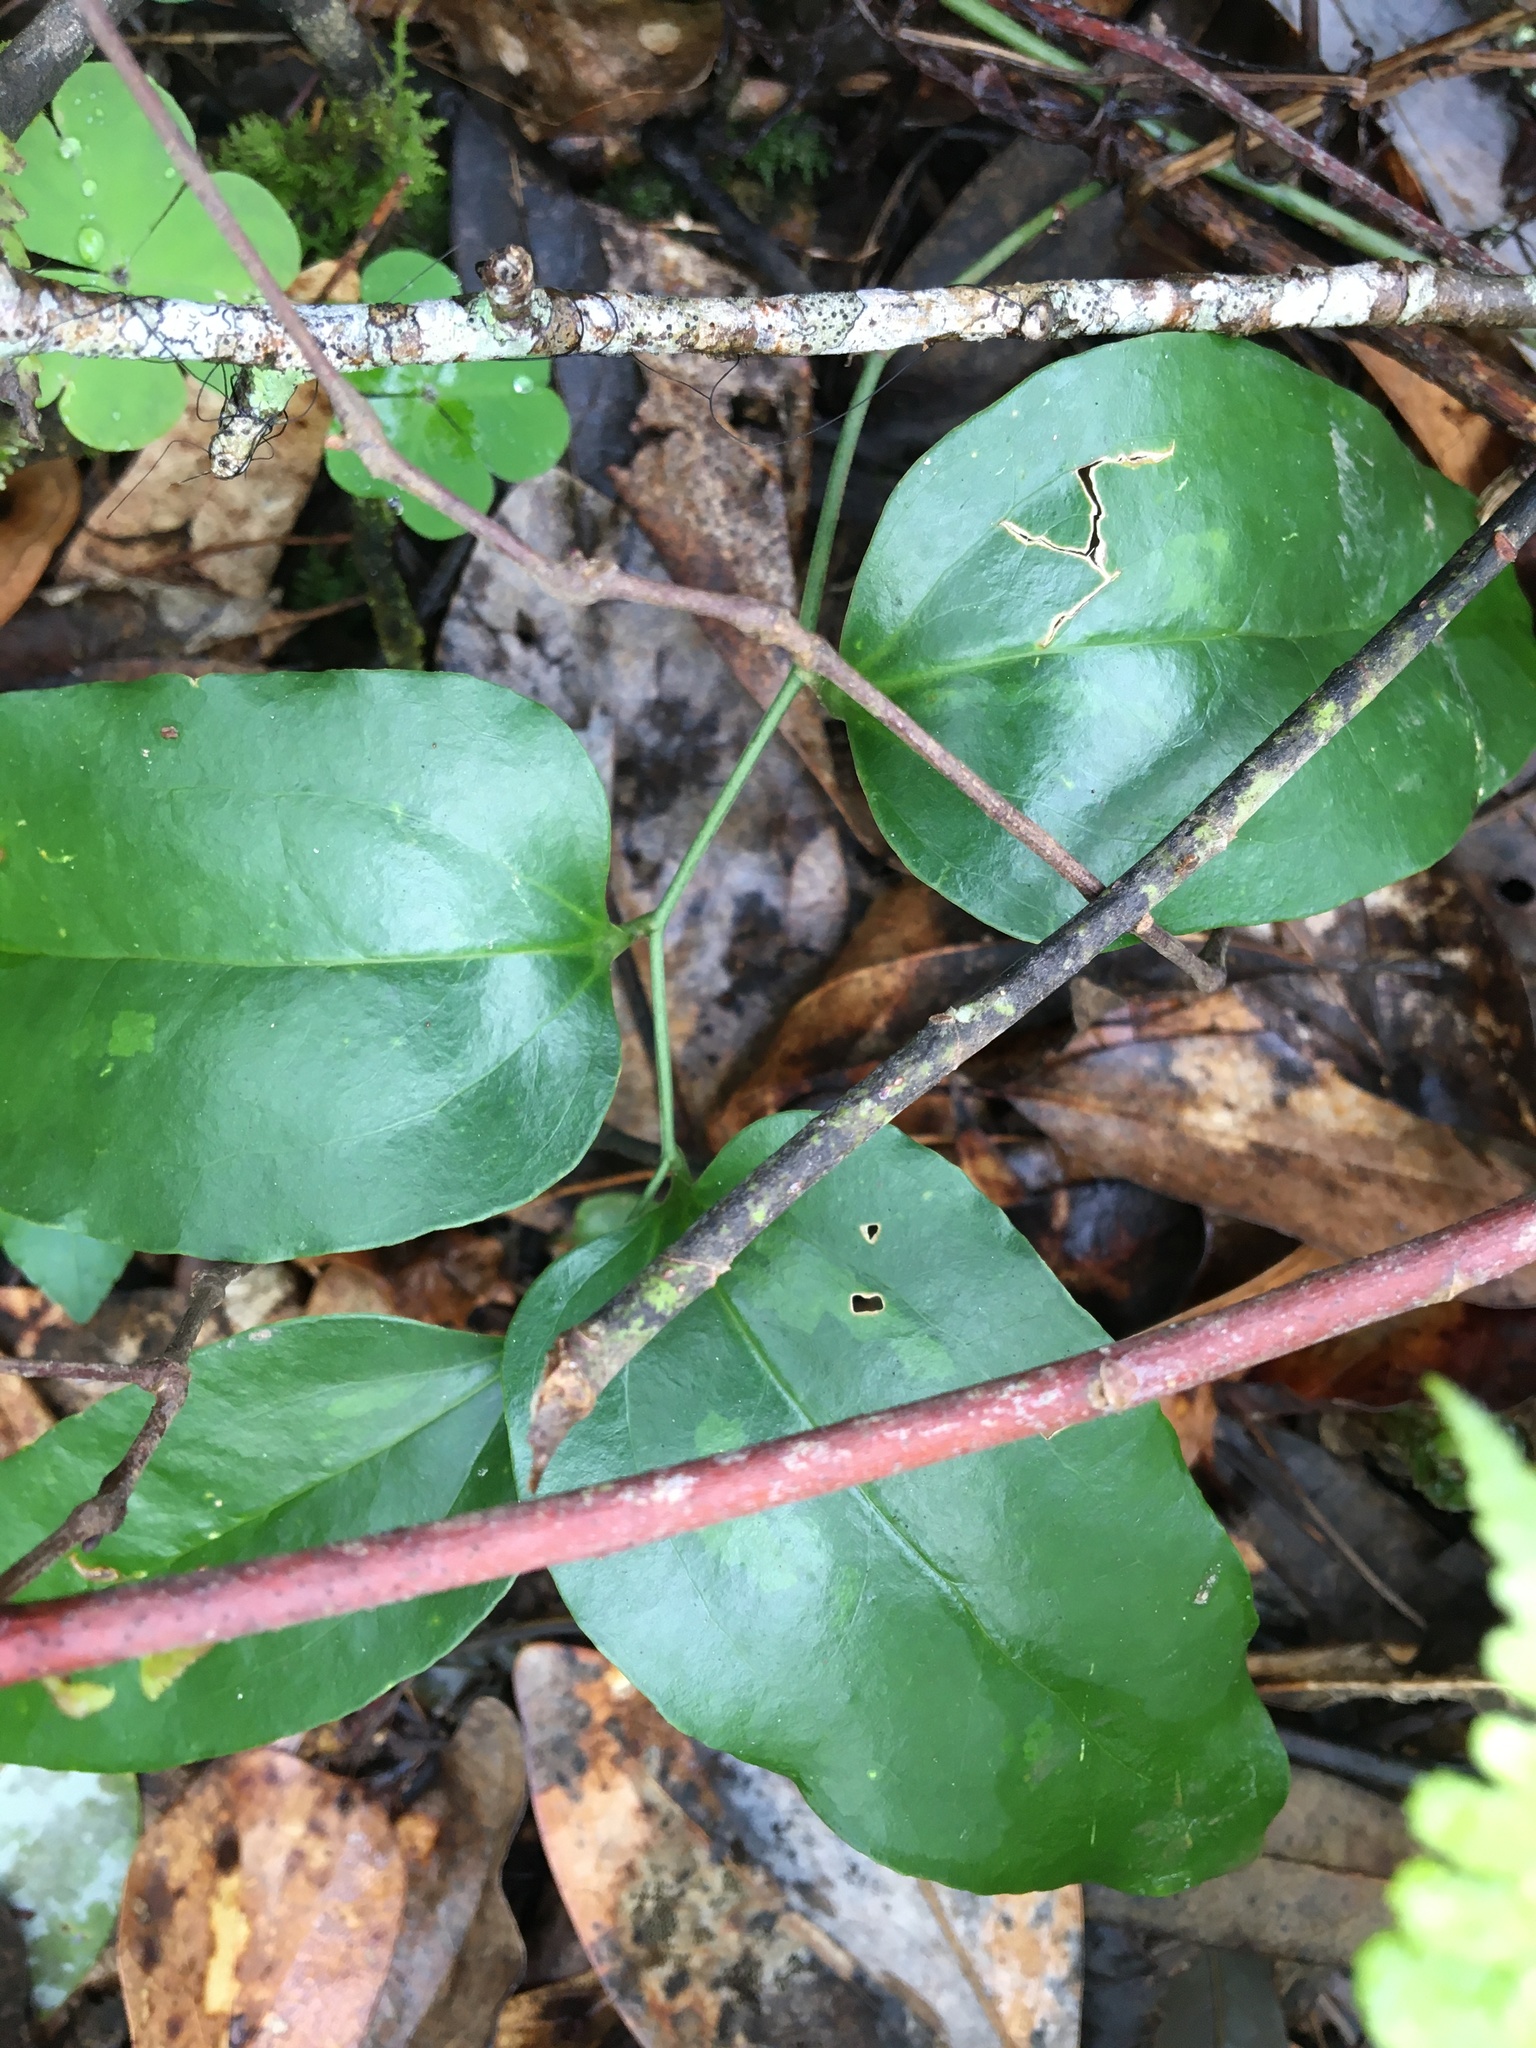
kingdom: Plantae
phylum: Tracheophyta
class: Liliopsida
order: Liliales
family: Smilacaceae
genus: Smilax
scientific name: Smilax maritima
